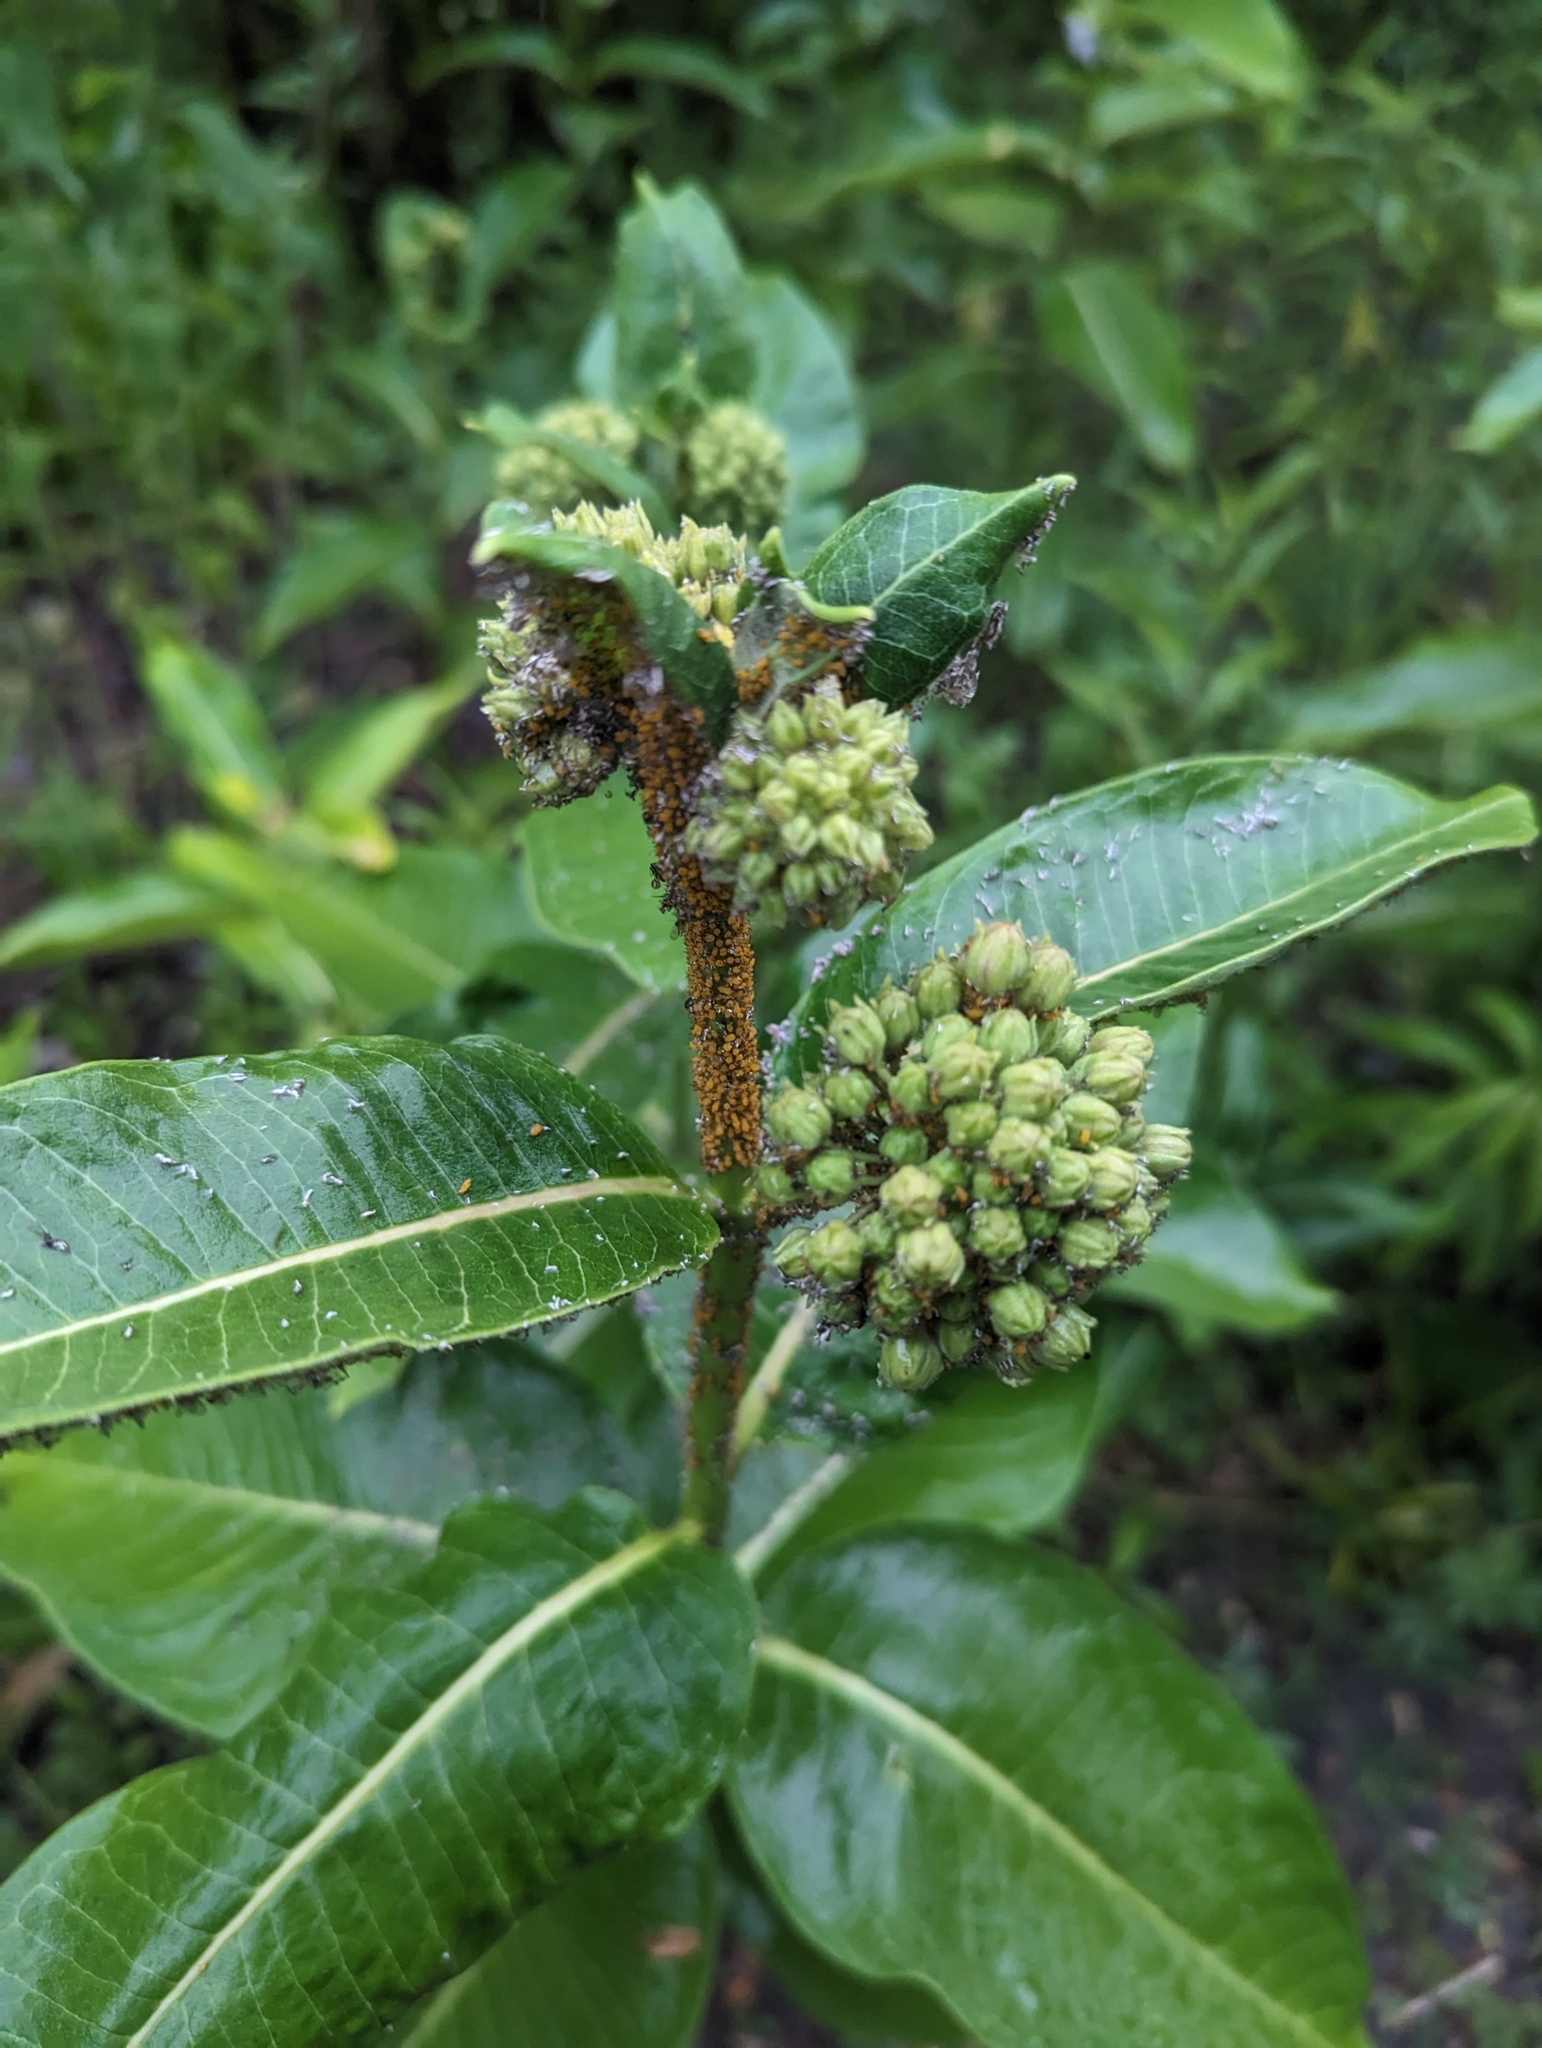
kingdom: Animalia
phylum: Arthropoda
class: Insecta
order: Hemiptera
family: Aphididae
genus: Aphis
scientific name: Aphis nerii
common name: Oleander aphid
